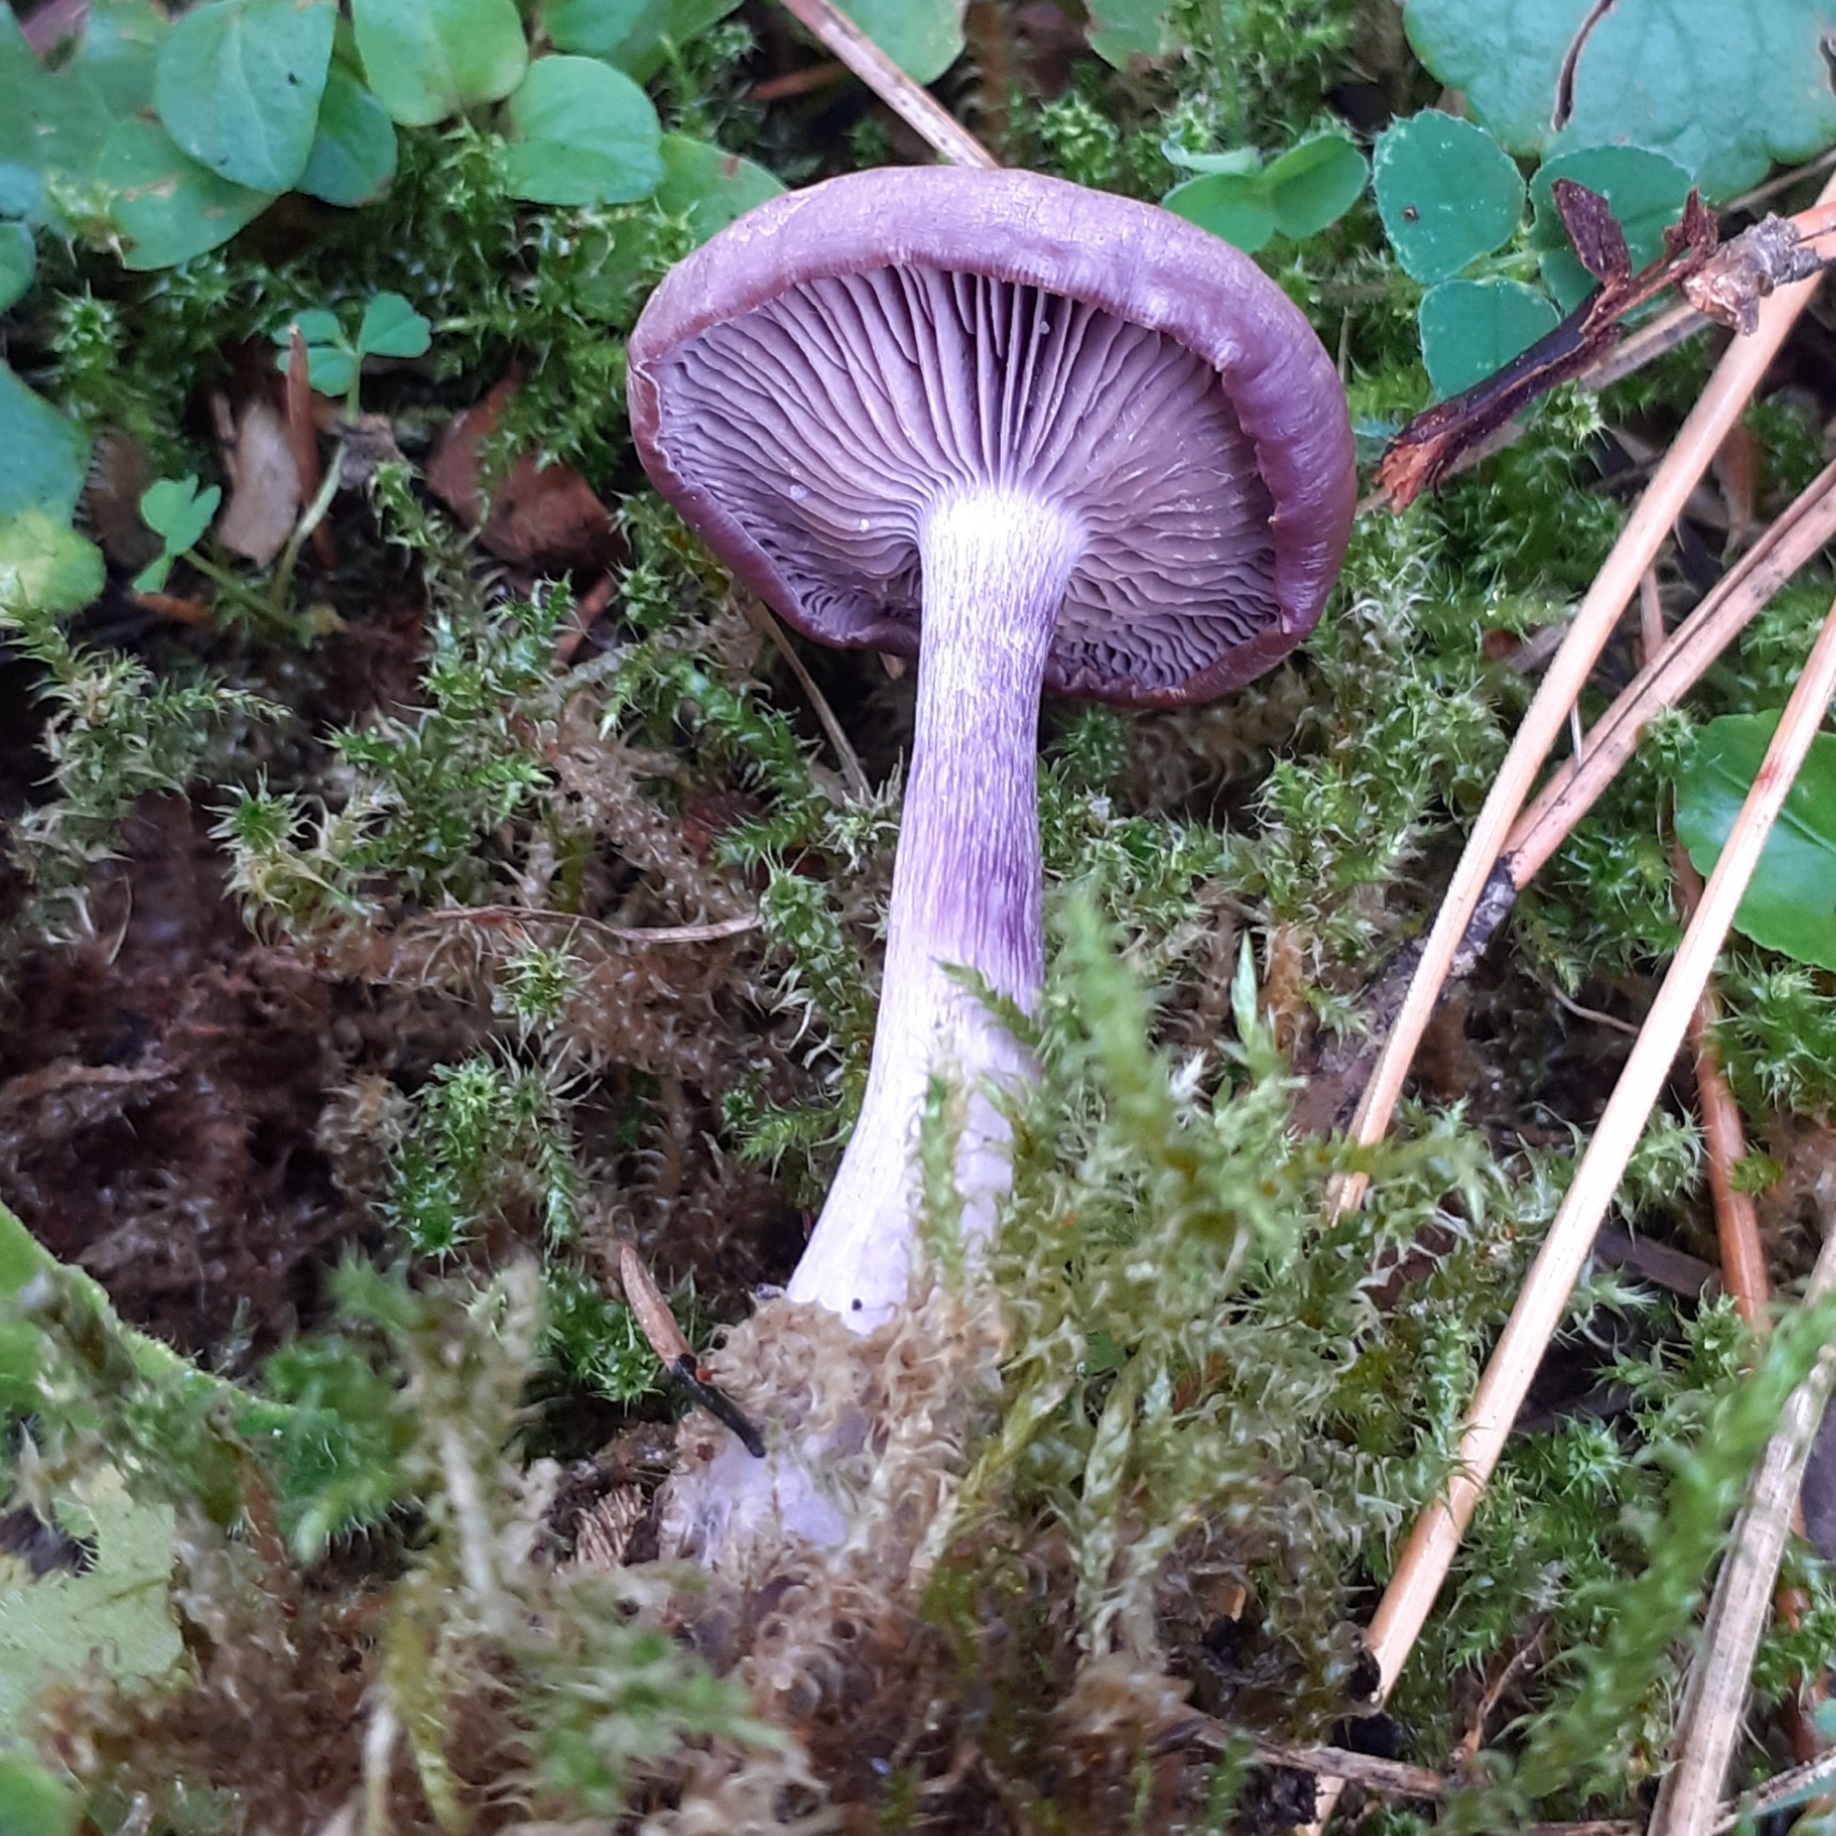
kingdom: Fungi
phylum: Basidiomycota
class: Agaricomycetes
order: Agaricales
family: Hydnangiaceae
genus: Laccaria
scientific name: Laccaria amethystina
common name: Amethyst deceiver
